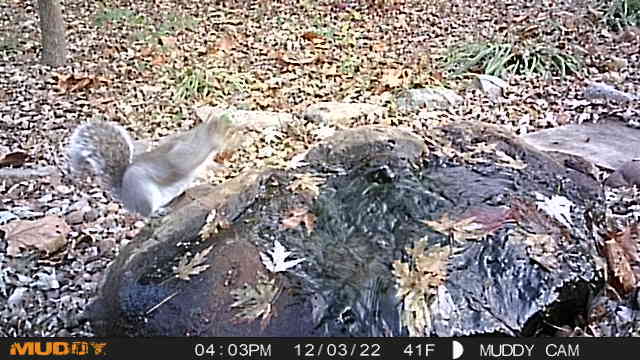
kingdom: Animalia
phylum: Chordata
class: Mammalia
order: Rodentia
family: Sciuridae
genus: Sciurus
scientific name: Sciurus carolinensis
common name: Eastern gray squirrel
